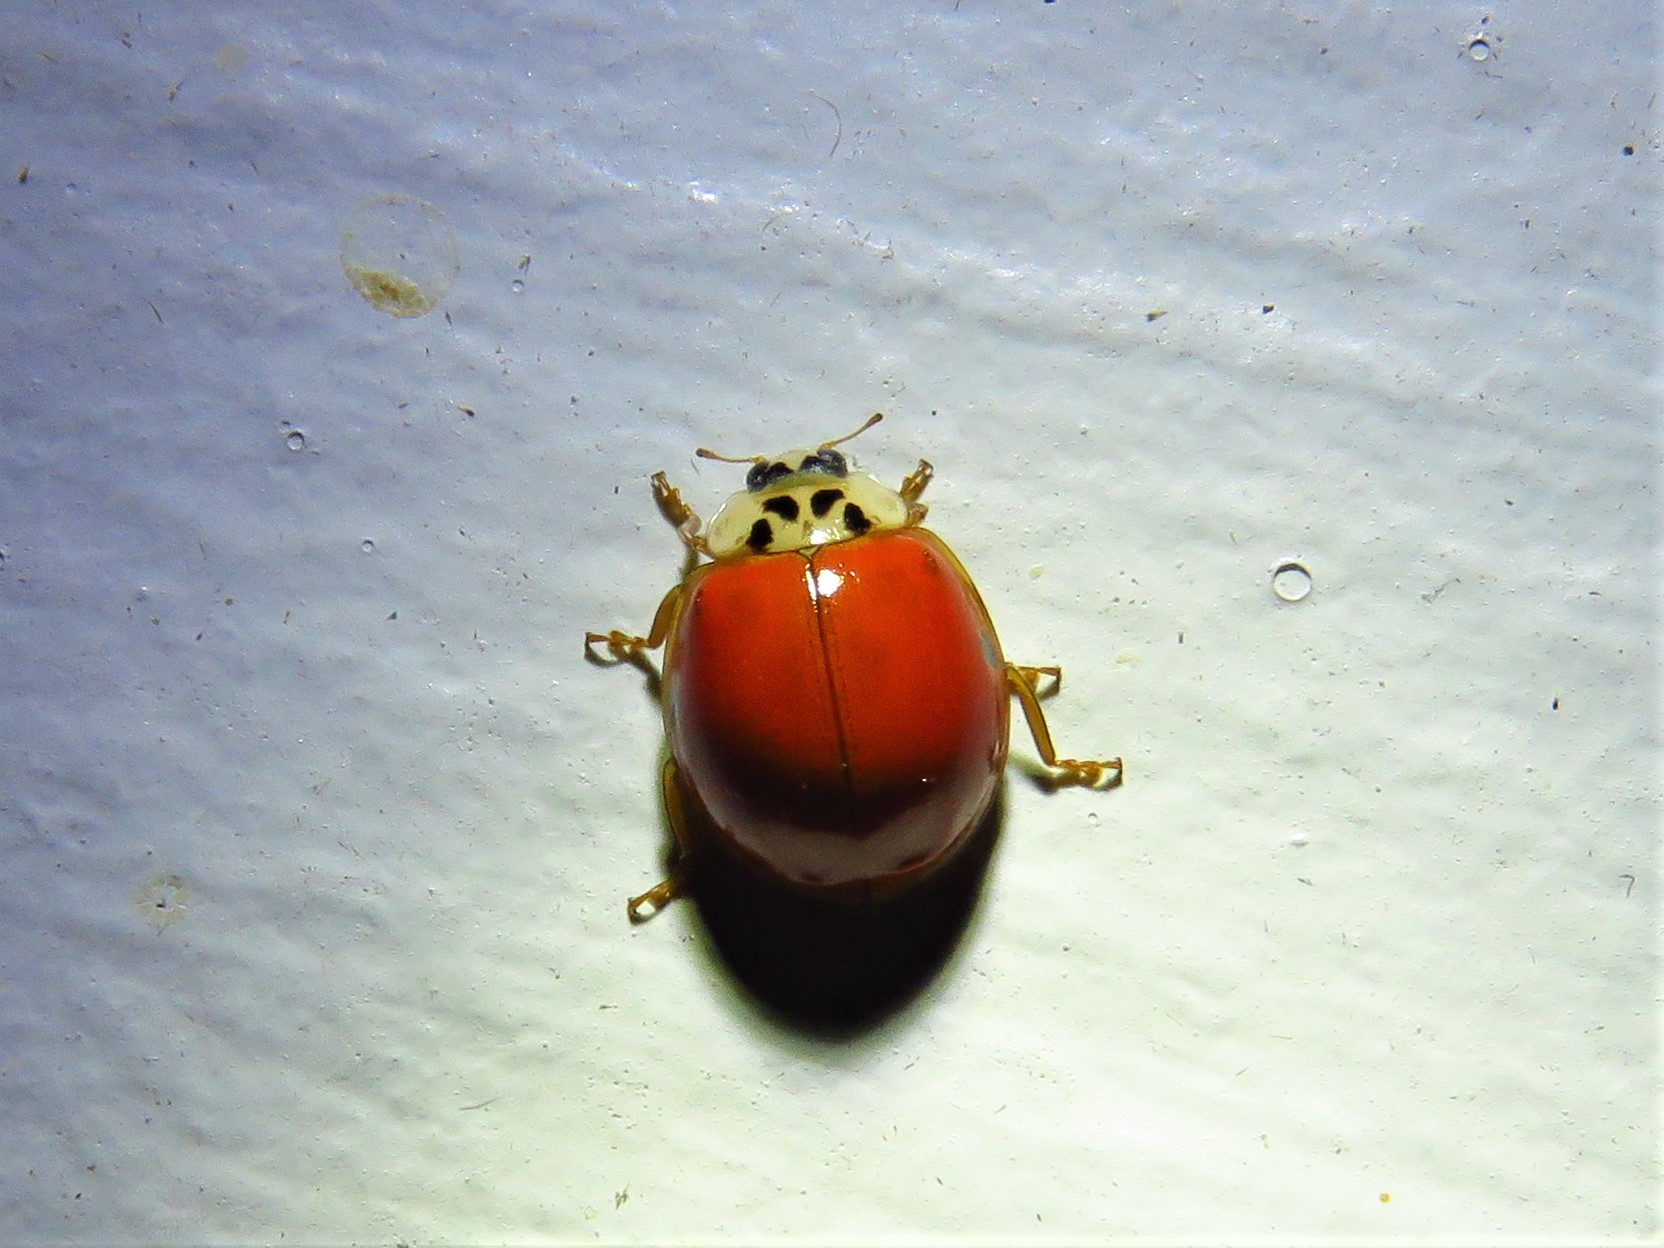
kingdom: Animalia
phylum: Arthropoda
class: Insecta
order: Coleoptera
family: Coccinellidae
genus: Harmonia
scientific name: Harmonia axyridis
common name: Harlequin ladybird
